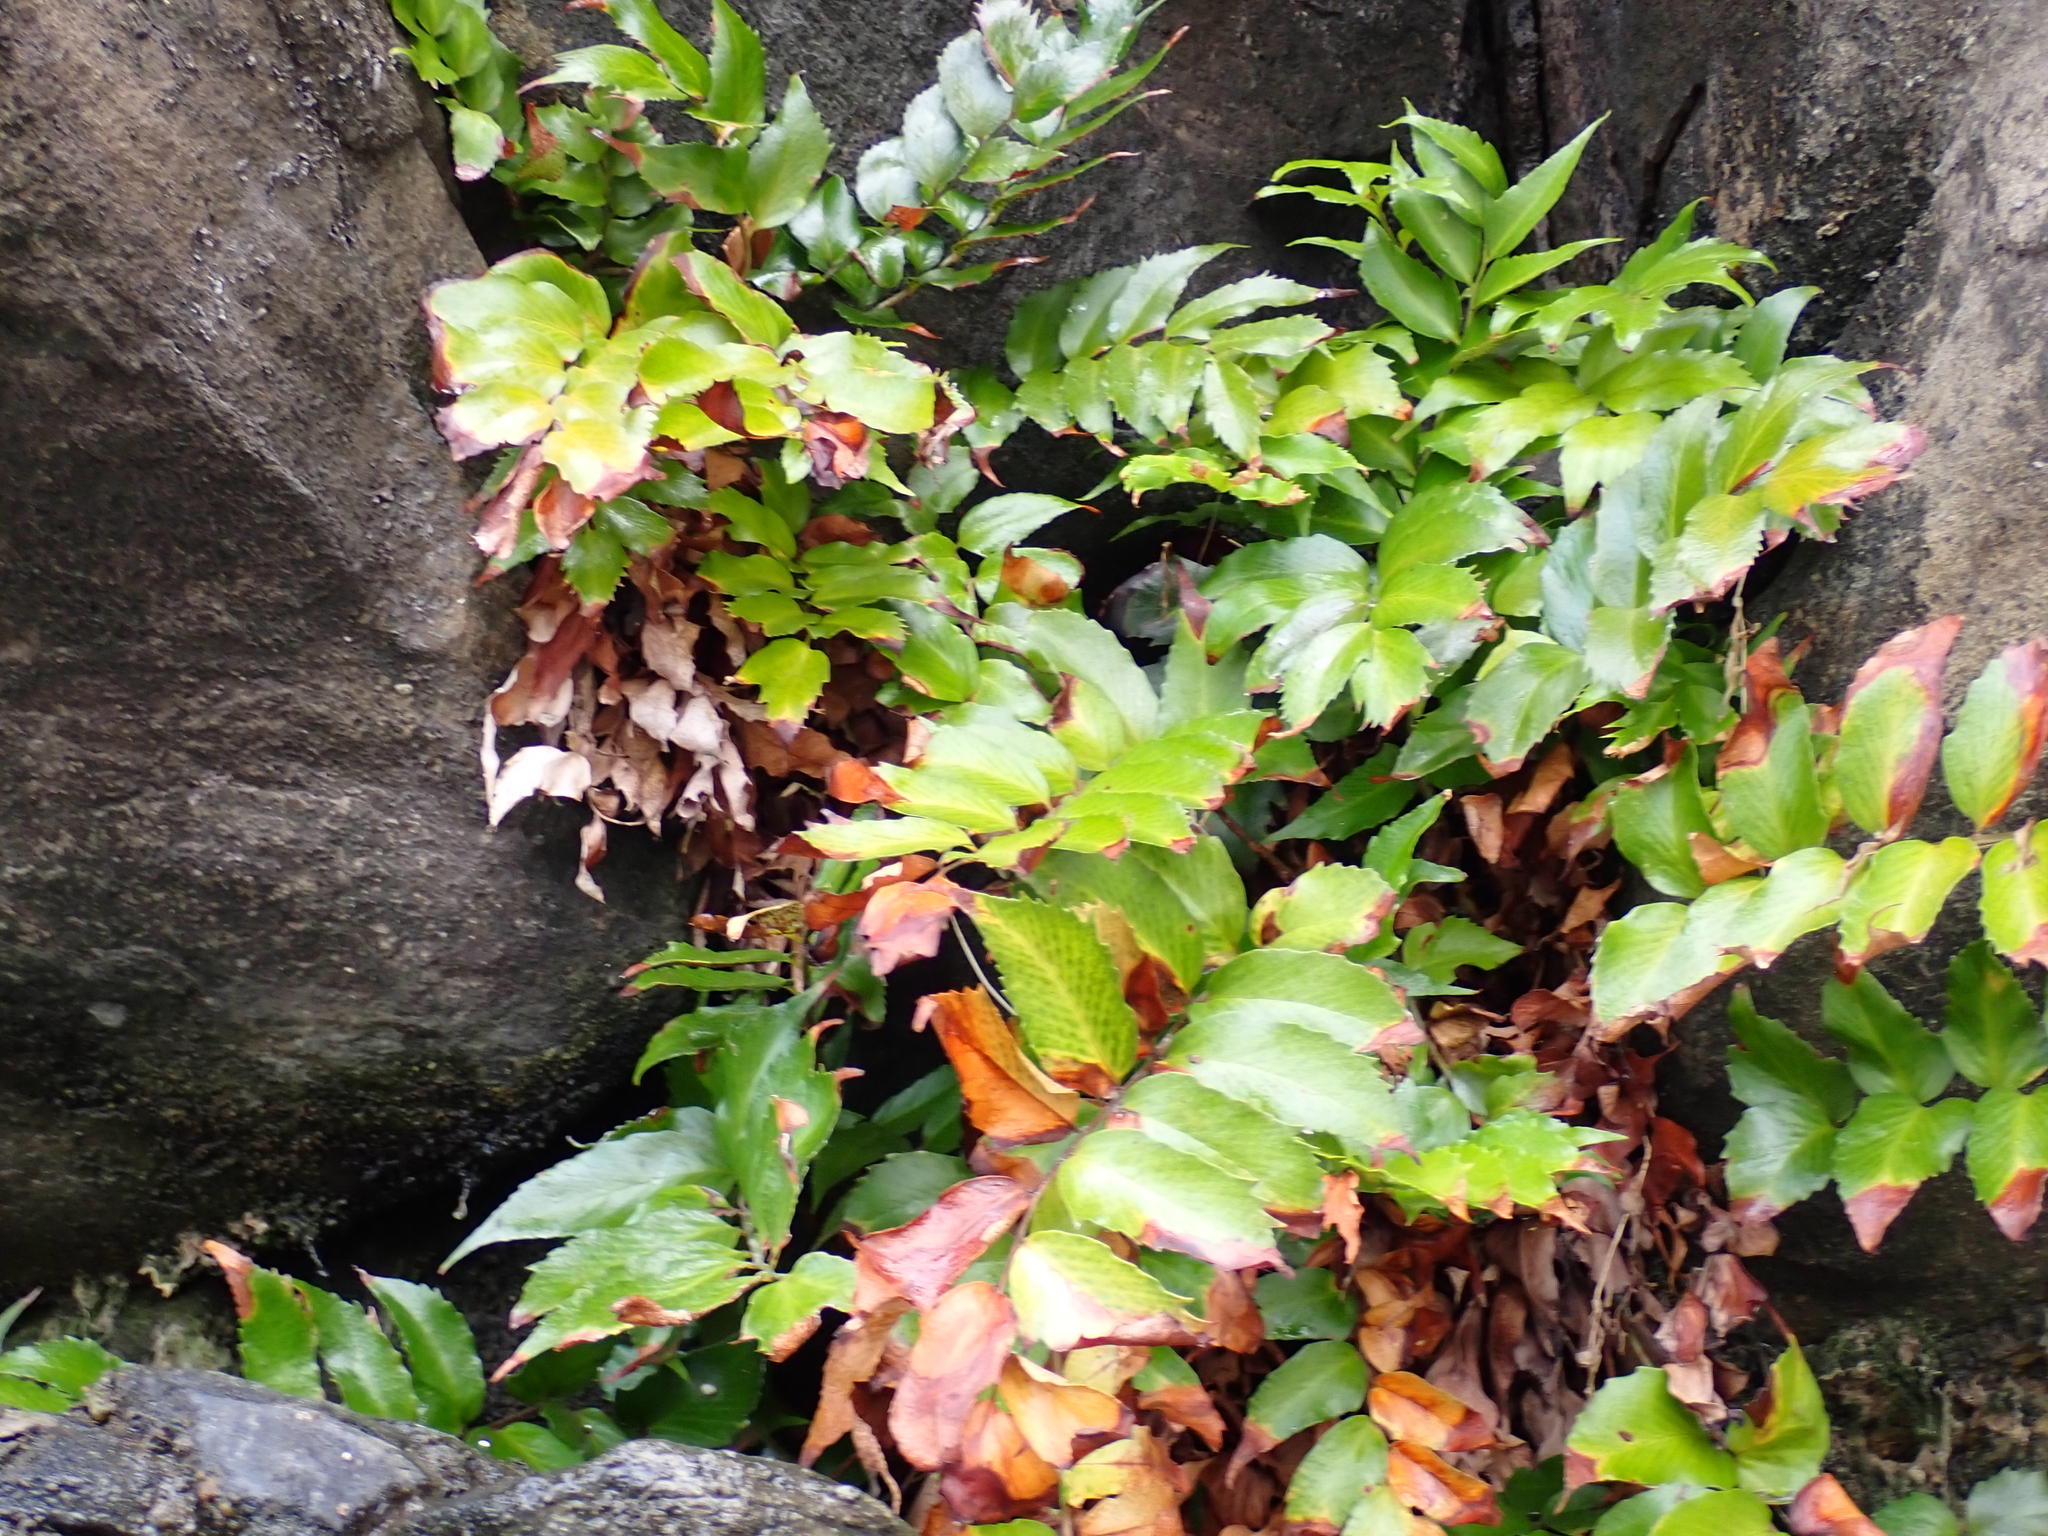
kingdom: Plantae
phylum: Tracheophyta
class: Polypodiopsida
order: Polypodiales
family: Dryopteridaceae
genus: Cyrtomium
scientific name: Cyrtomium falcatum
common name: House holly-fern
